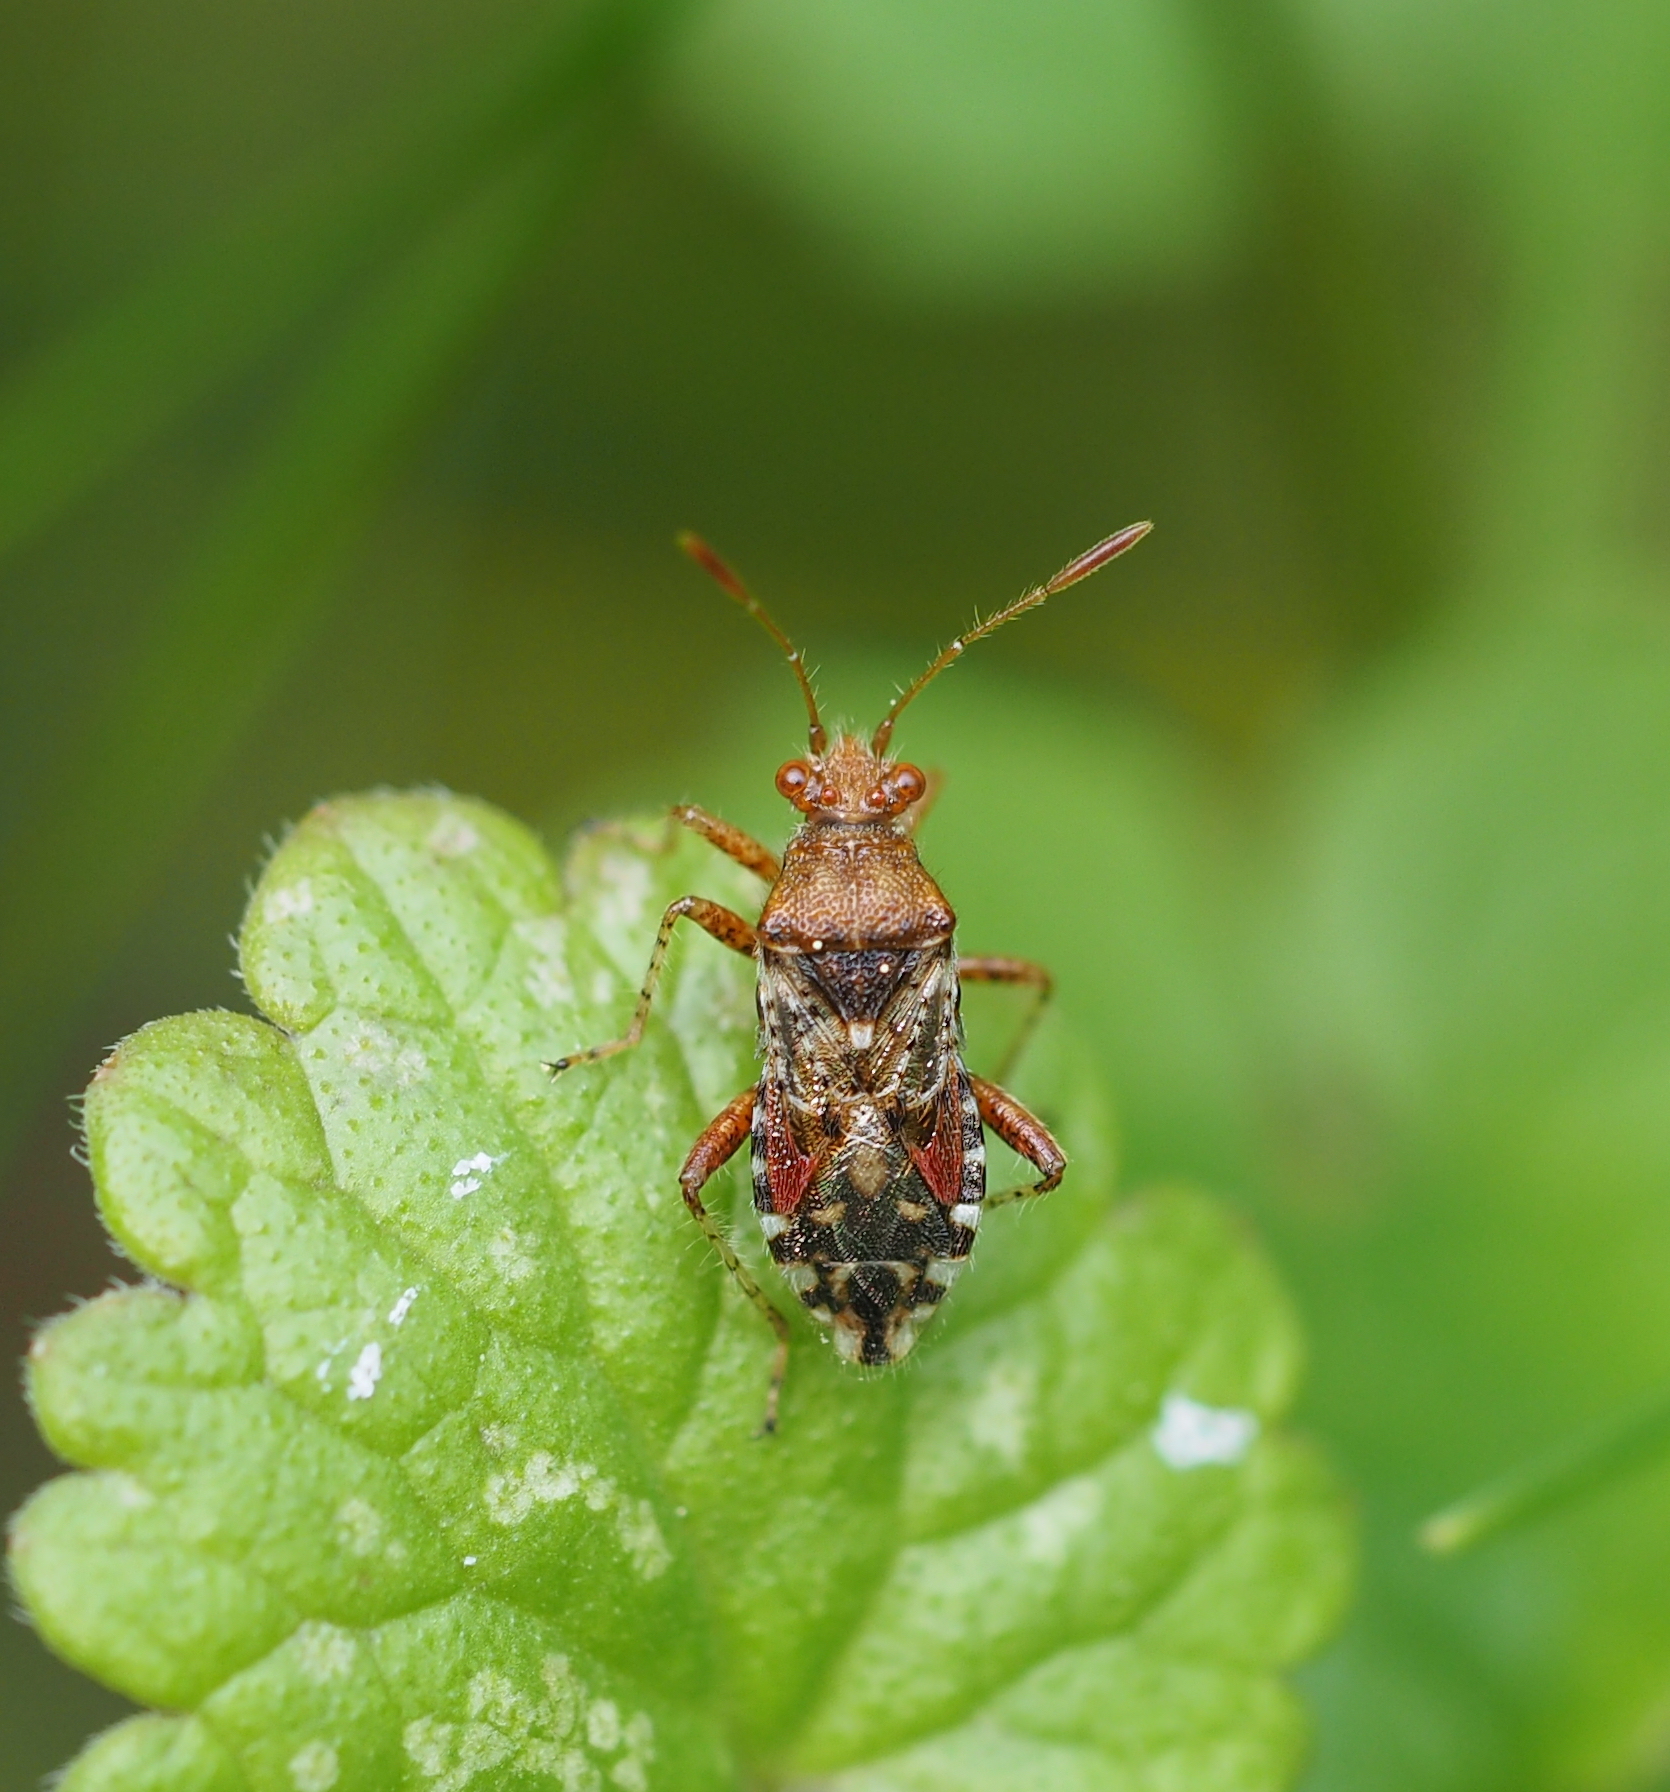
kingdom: Animalia
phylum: Arthropoda
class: Insecta
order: Hemiptera
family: Rhopalidae
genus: Rhopalus
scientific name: Rhopalus subrufus
